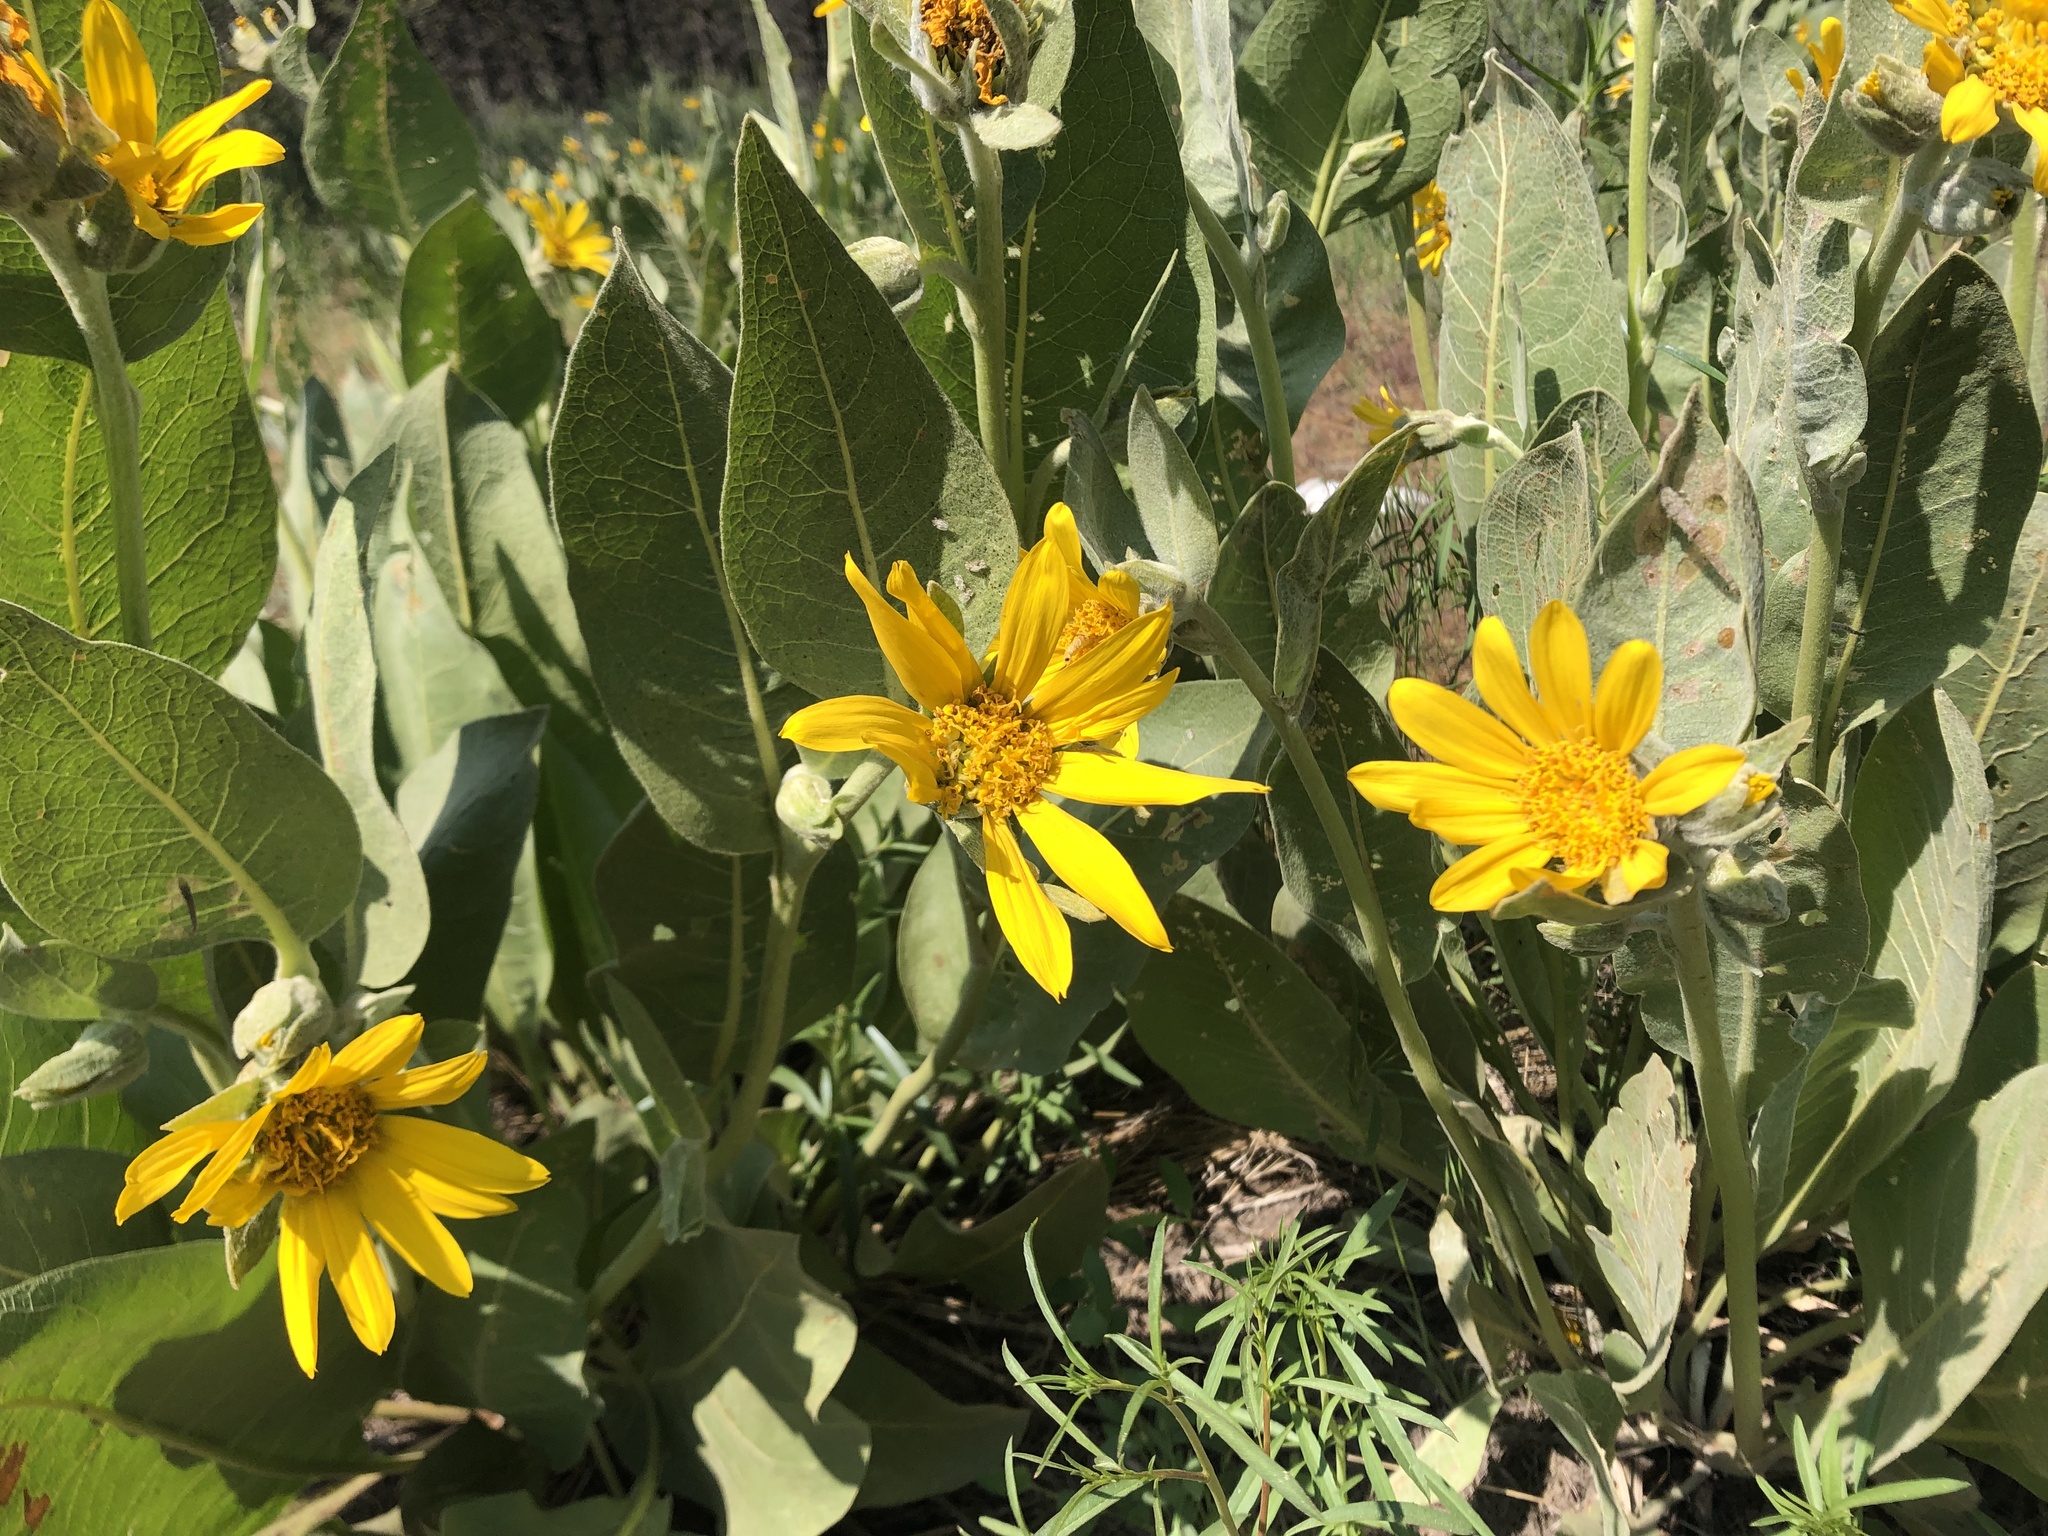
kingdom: Plantae
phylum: Tracheophyta
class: Magnoliopsida
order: Asterales
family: Asteraceae
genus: Wyethia
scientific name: Wyethia mollis
